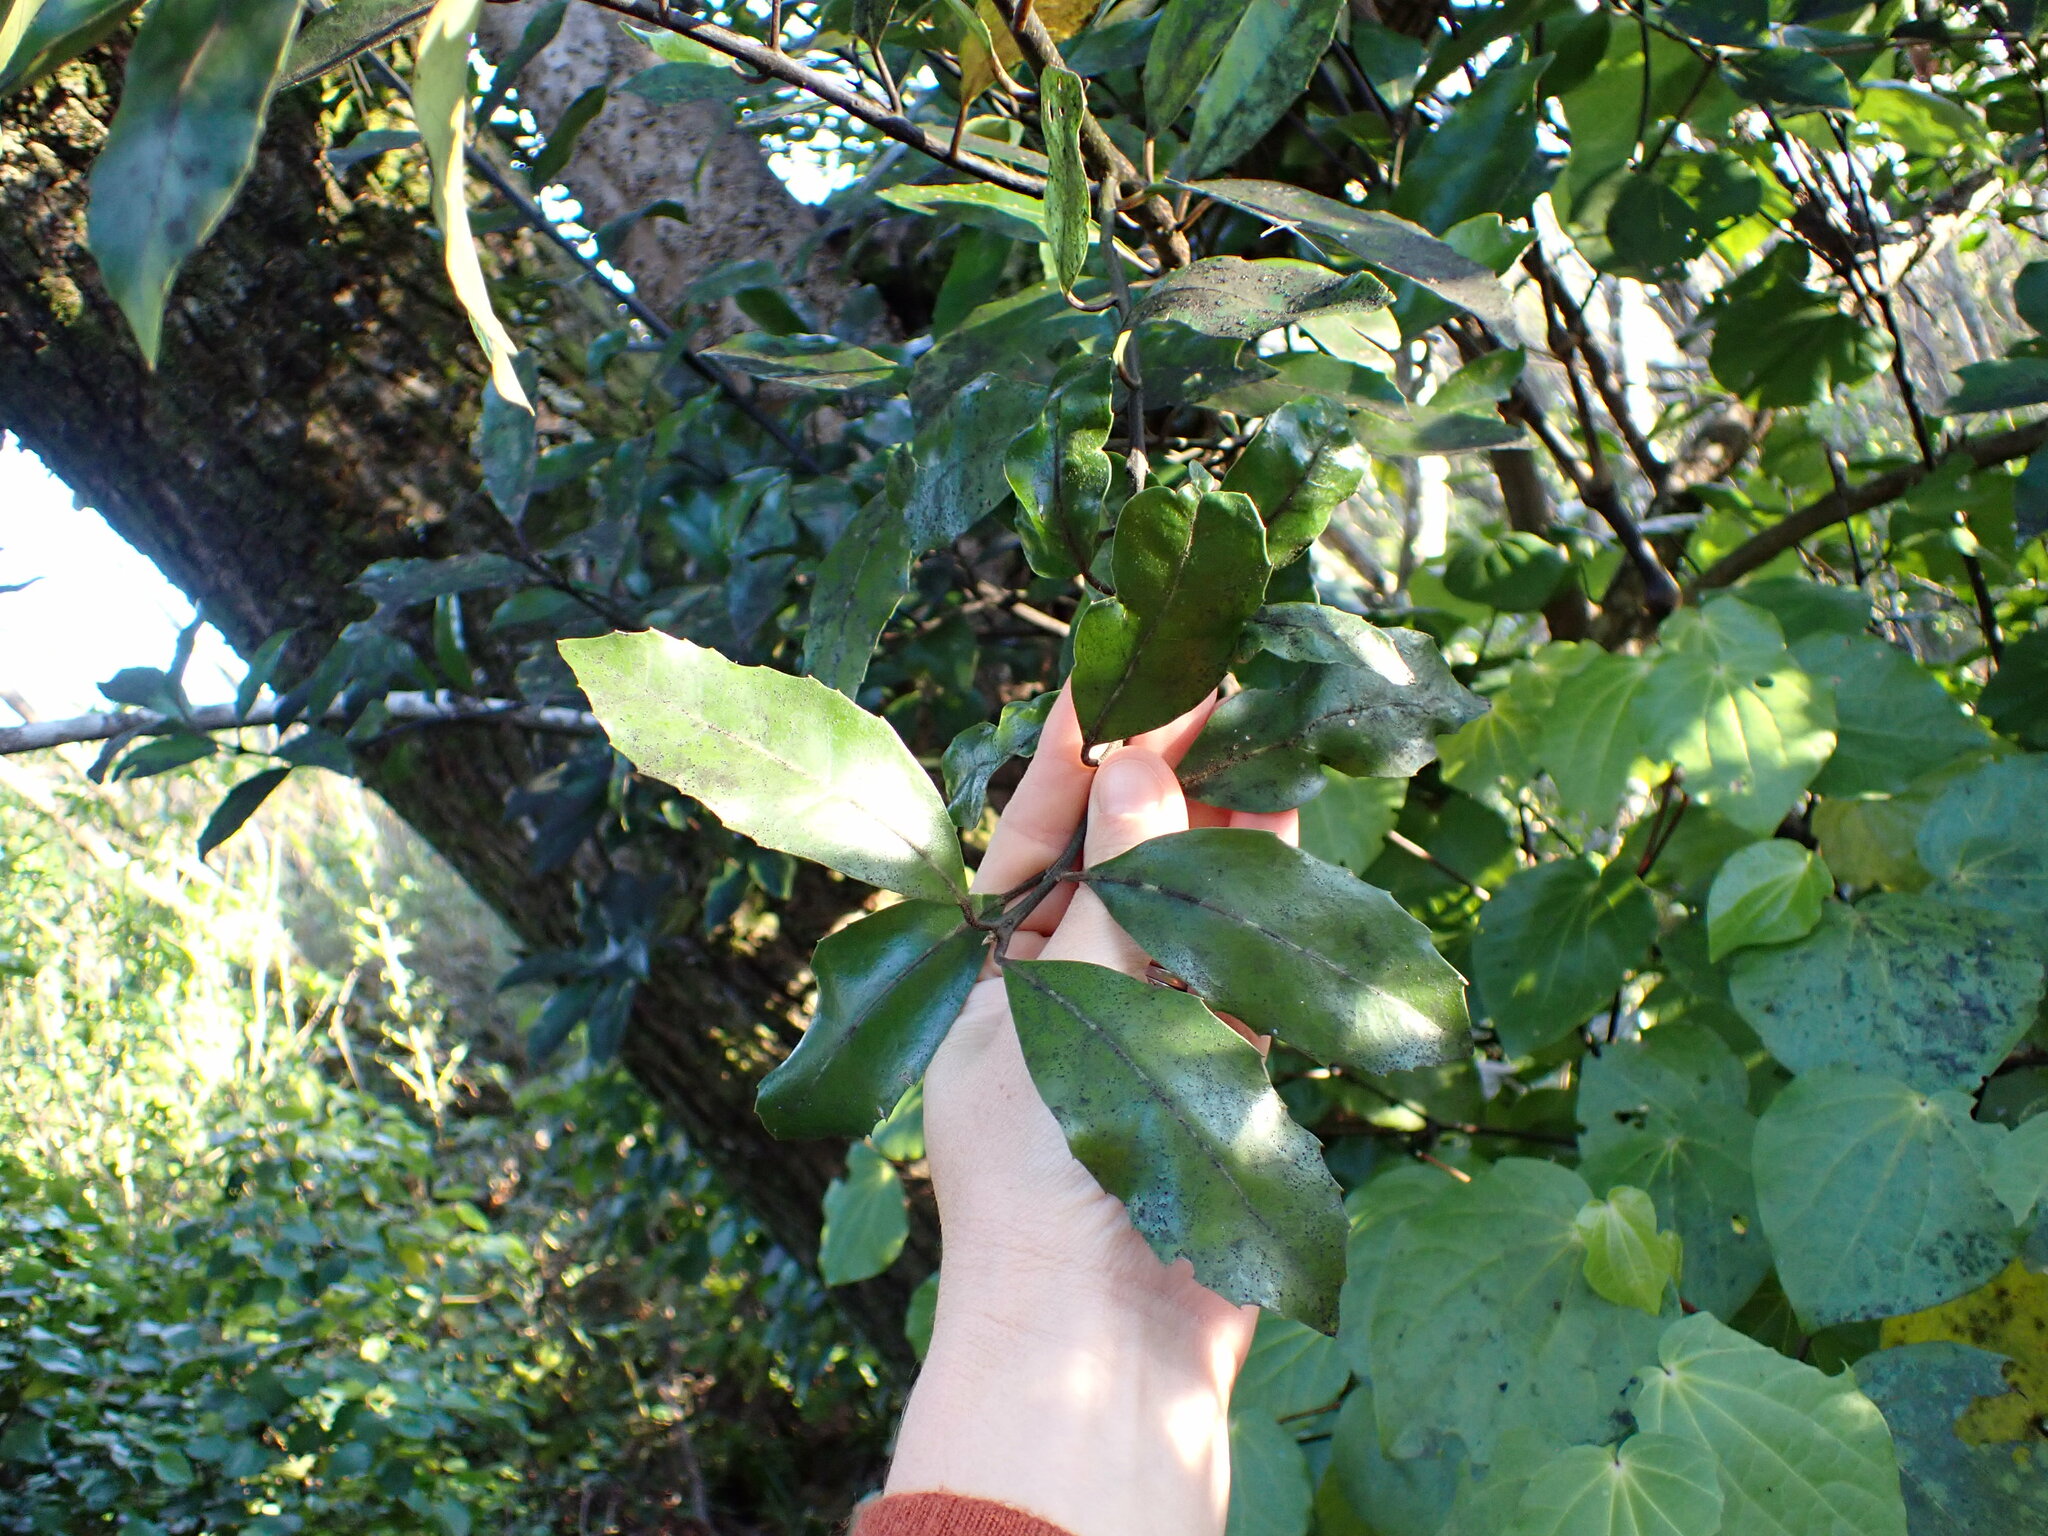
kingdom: Plantae
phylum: Tracheophyta
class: Magnoliopsida
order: Laurales
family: Monimiaceae
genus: Hedycarya
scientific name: Hedycarya arborea
